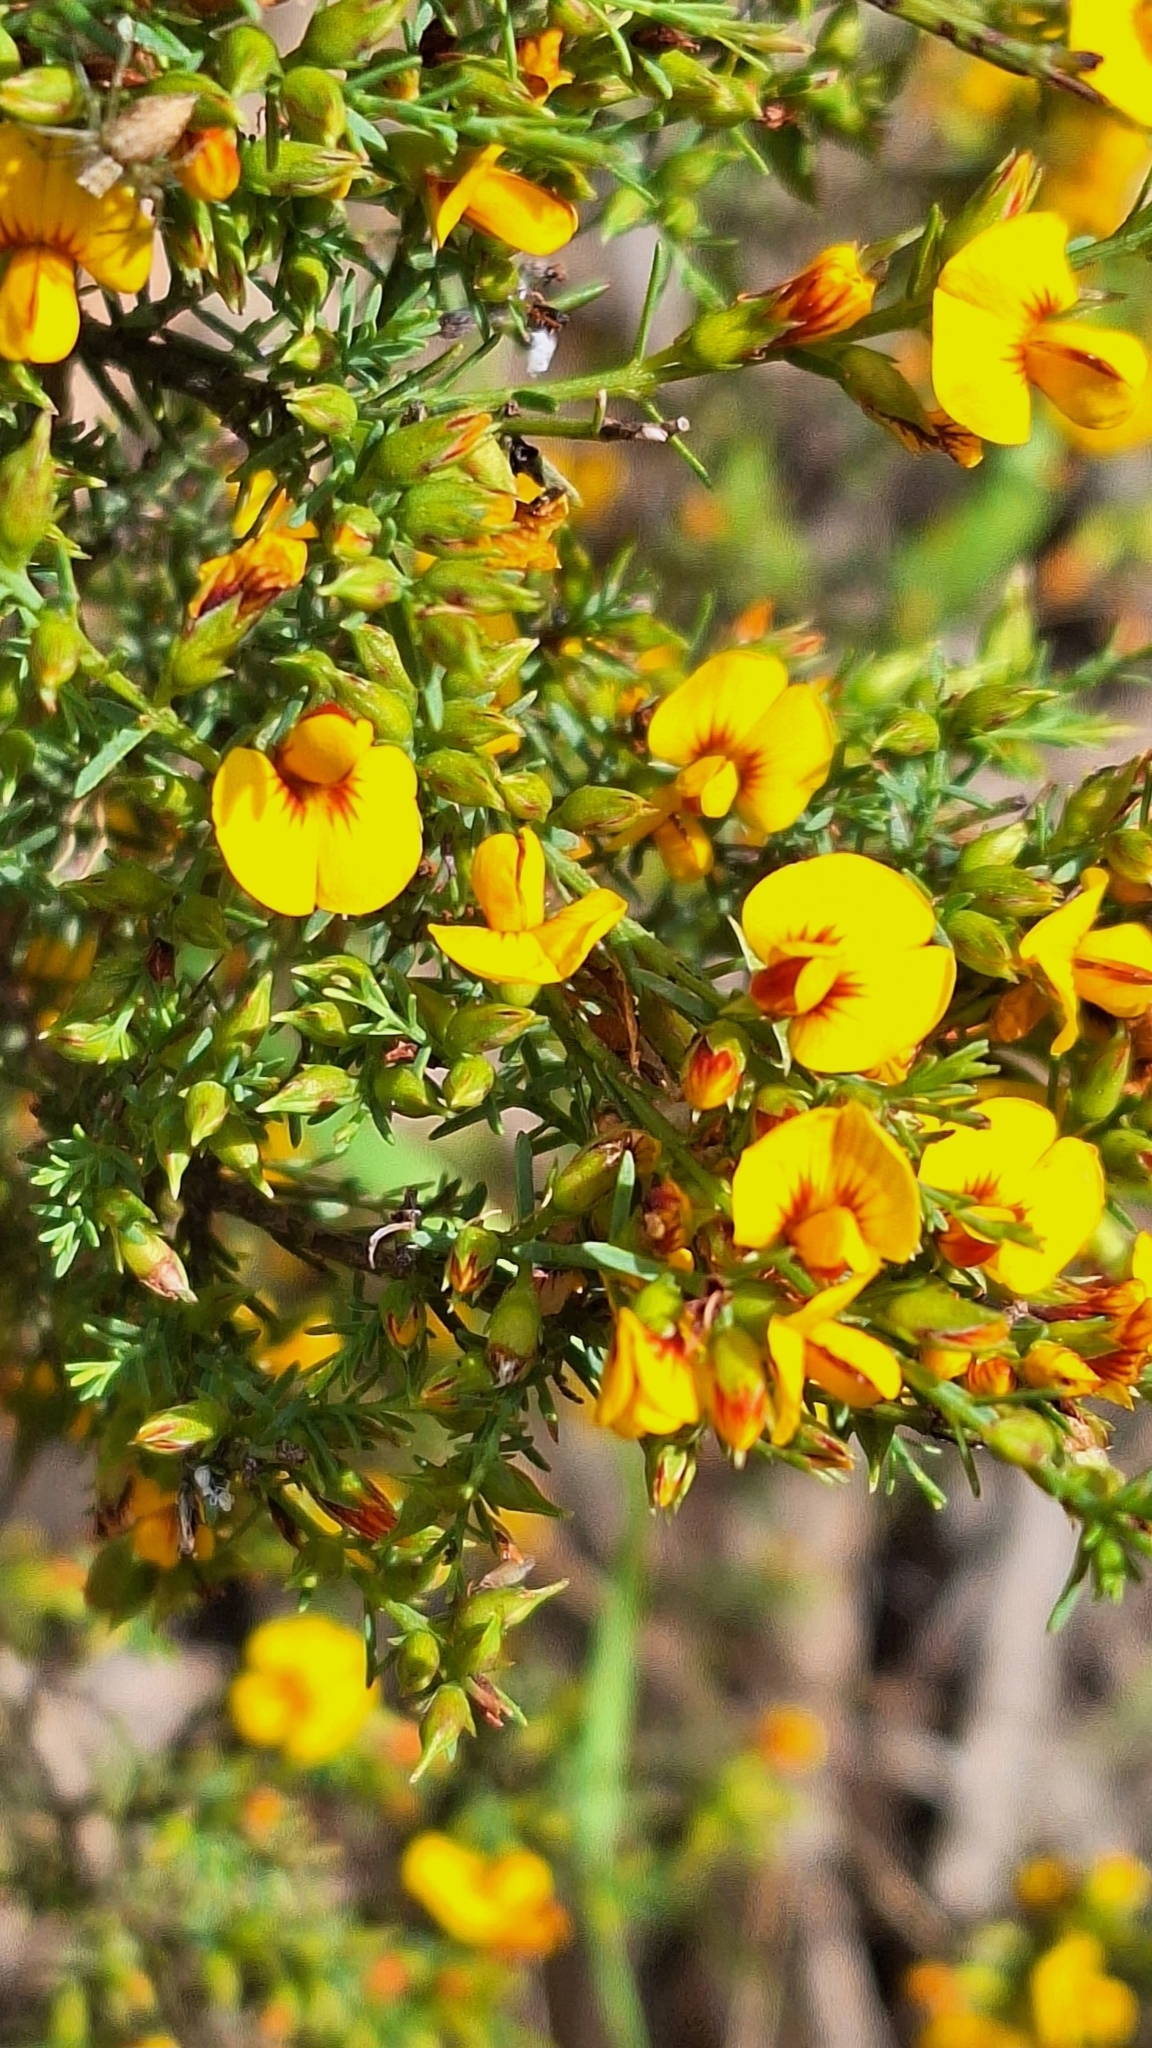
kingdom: Plantae
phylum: Tracheophyta
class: Magnoliopsida
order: Fabales
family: Fabaceae
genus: Eutaxia
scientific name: Eutaxia microphylla
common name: Mallee bush-pea
